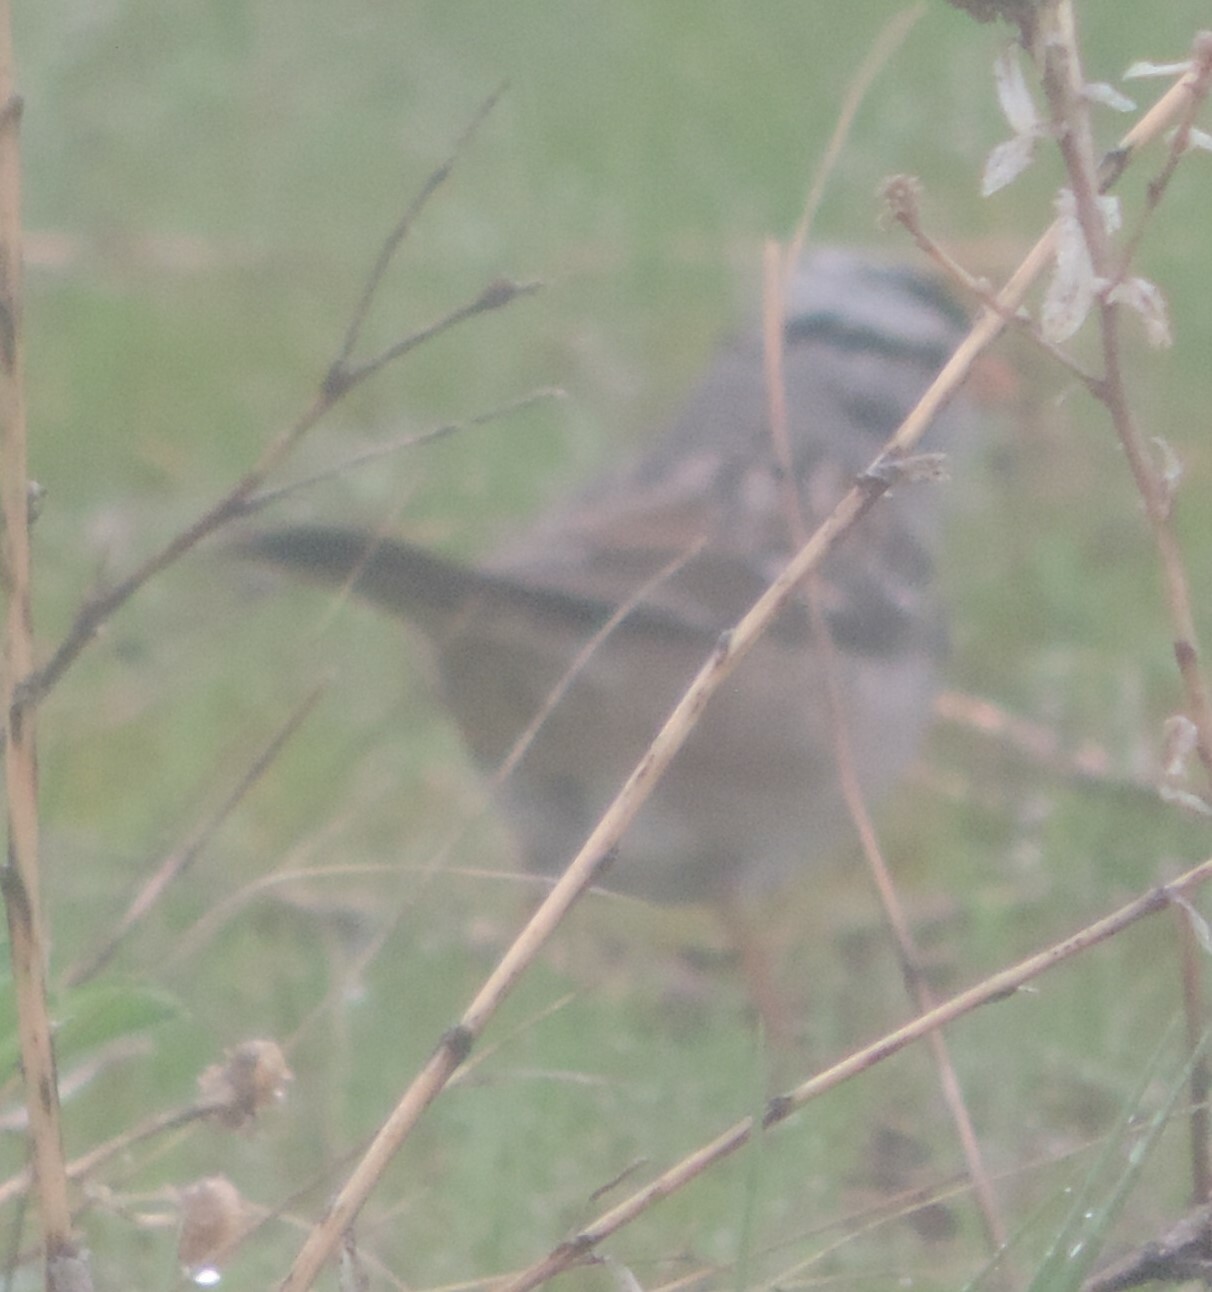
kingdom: Animalia
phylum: Chordata
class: Aves
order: Passeriformes
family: Passerellidae
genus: Zonotrichia
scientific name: Zonotrichia leucophrys
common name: White-crowned sparrow
